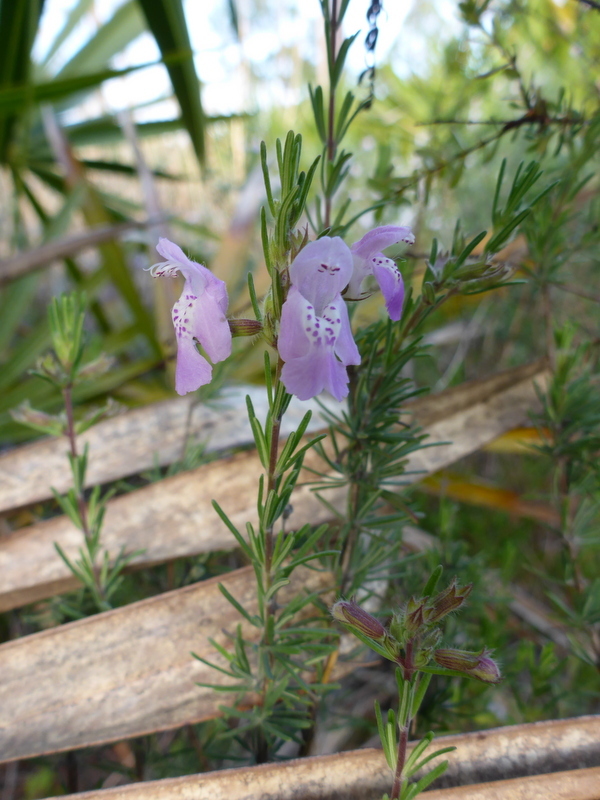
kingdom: Plantae
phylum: Tracheophyta
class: Magnoliopsida
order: Lamiales
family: Lamiaceae
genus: Conradina
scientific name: Conradina canescens
